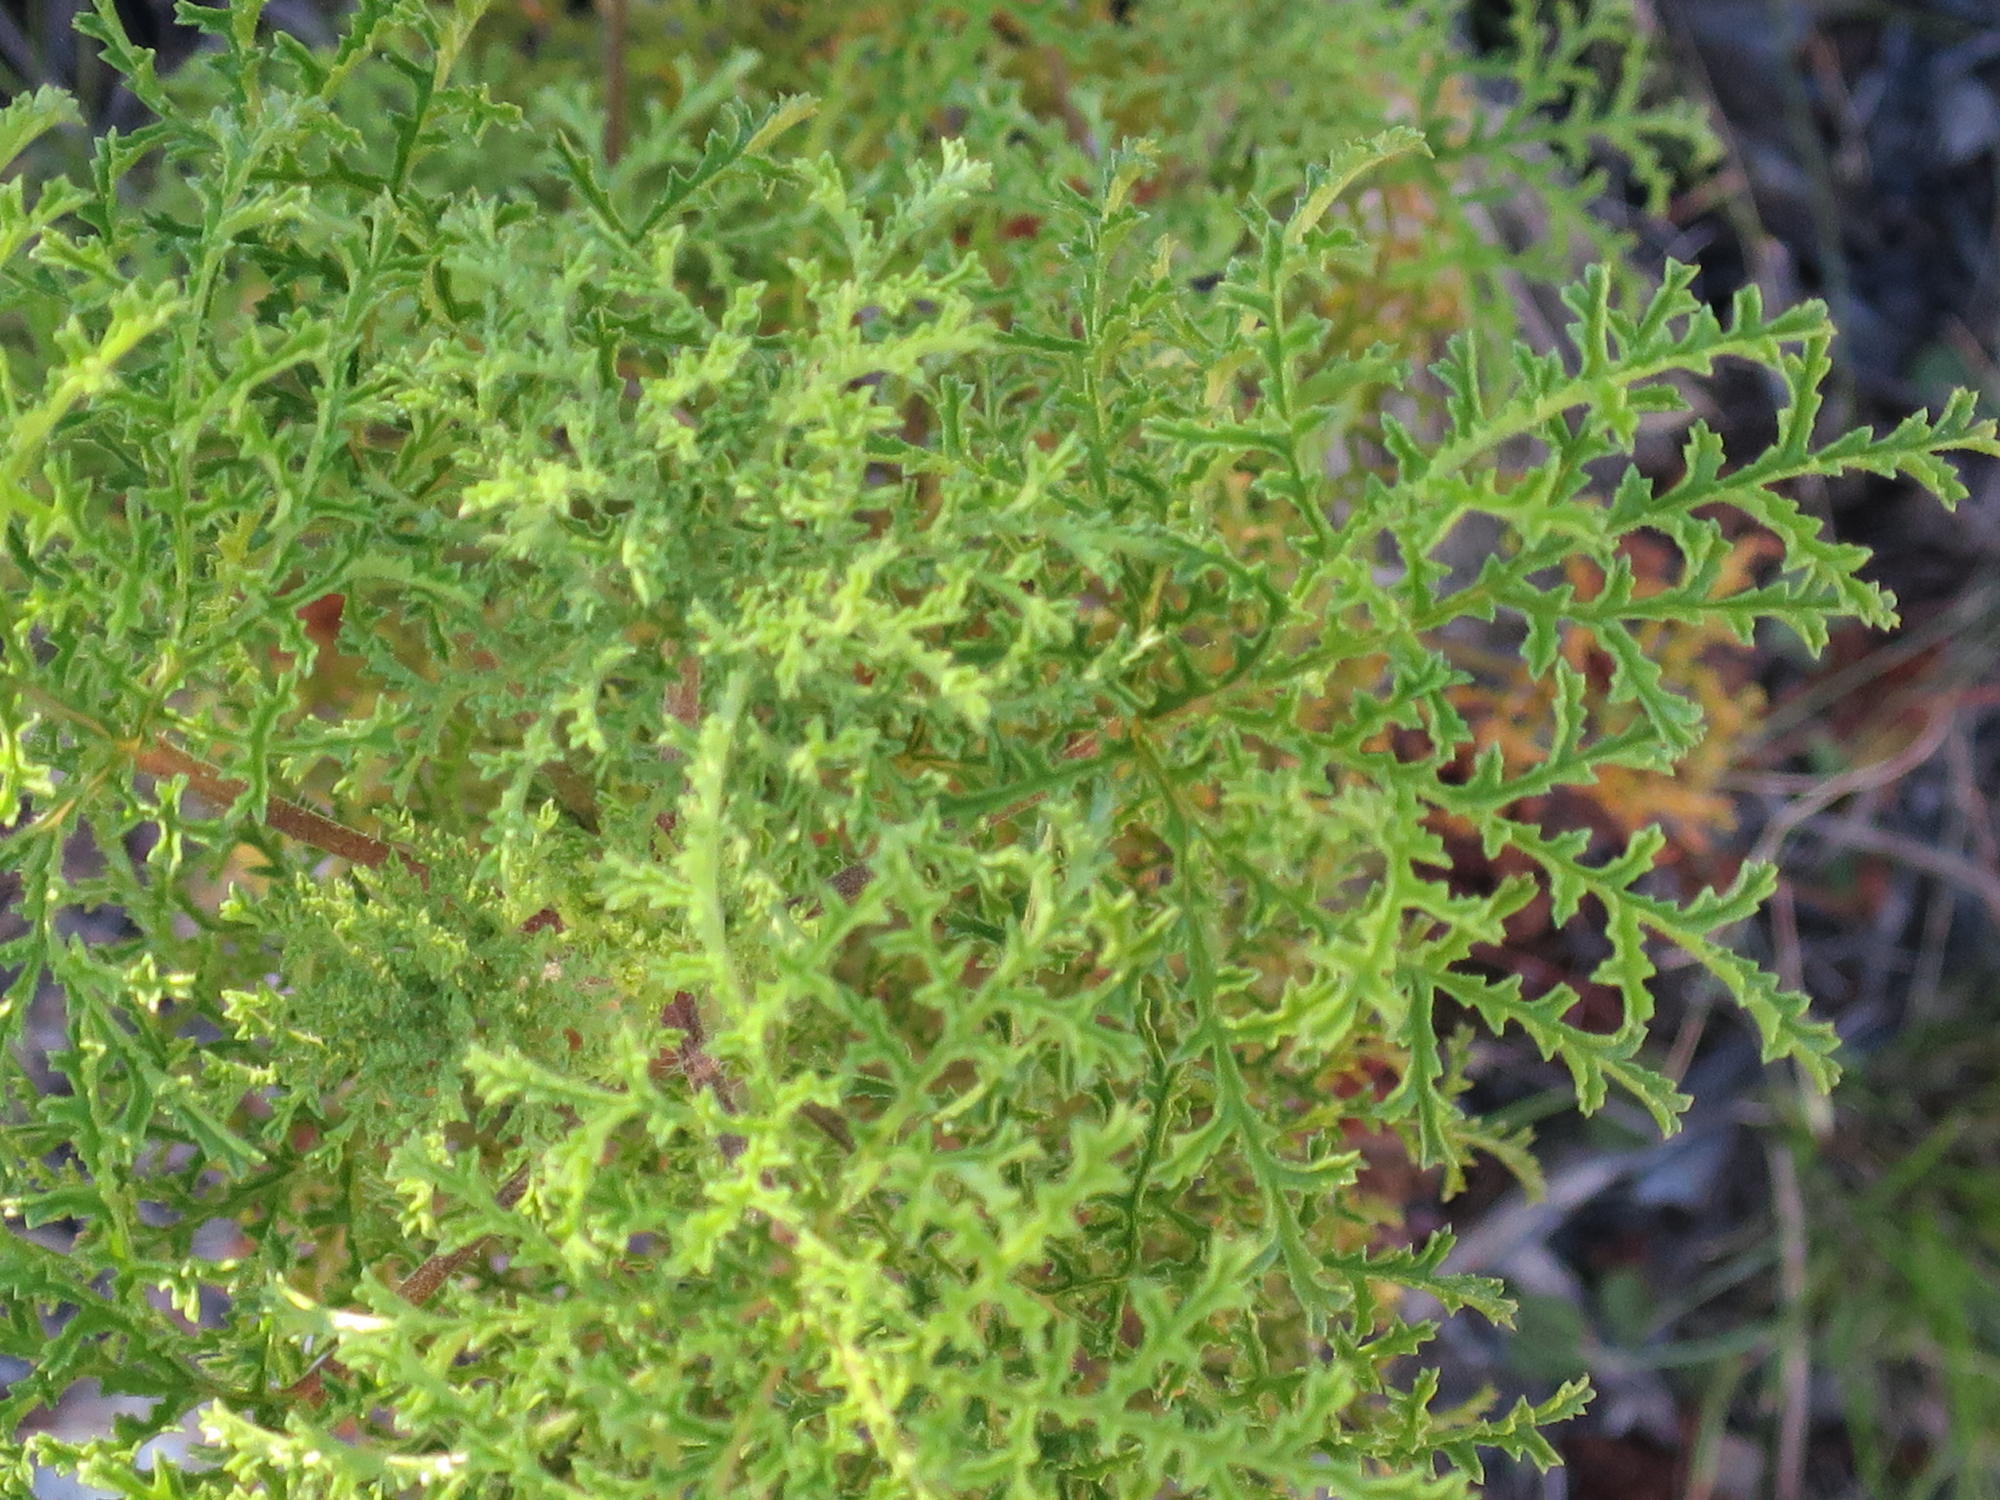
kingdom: Plantae
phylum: Tracheophyta
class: Magnoliopsida
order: Geraniales
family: Geraniaceae
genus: Pelargonium
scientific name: Pelargonium denticulatum
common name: Pine geranium
